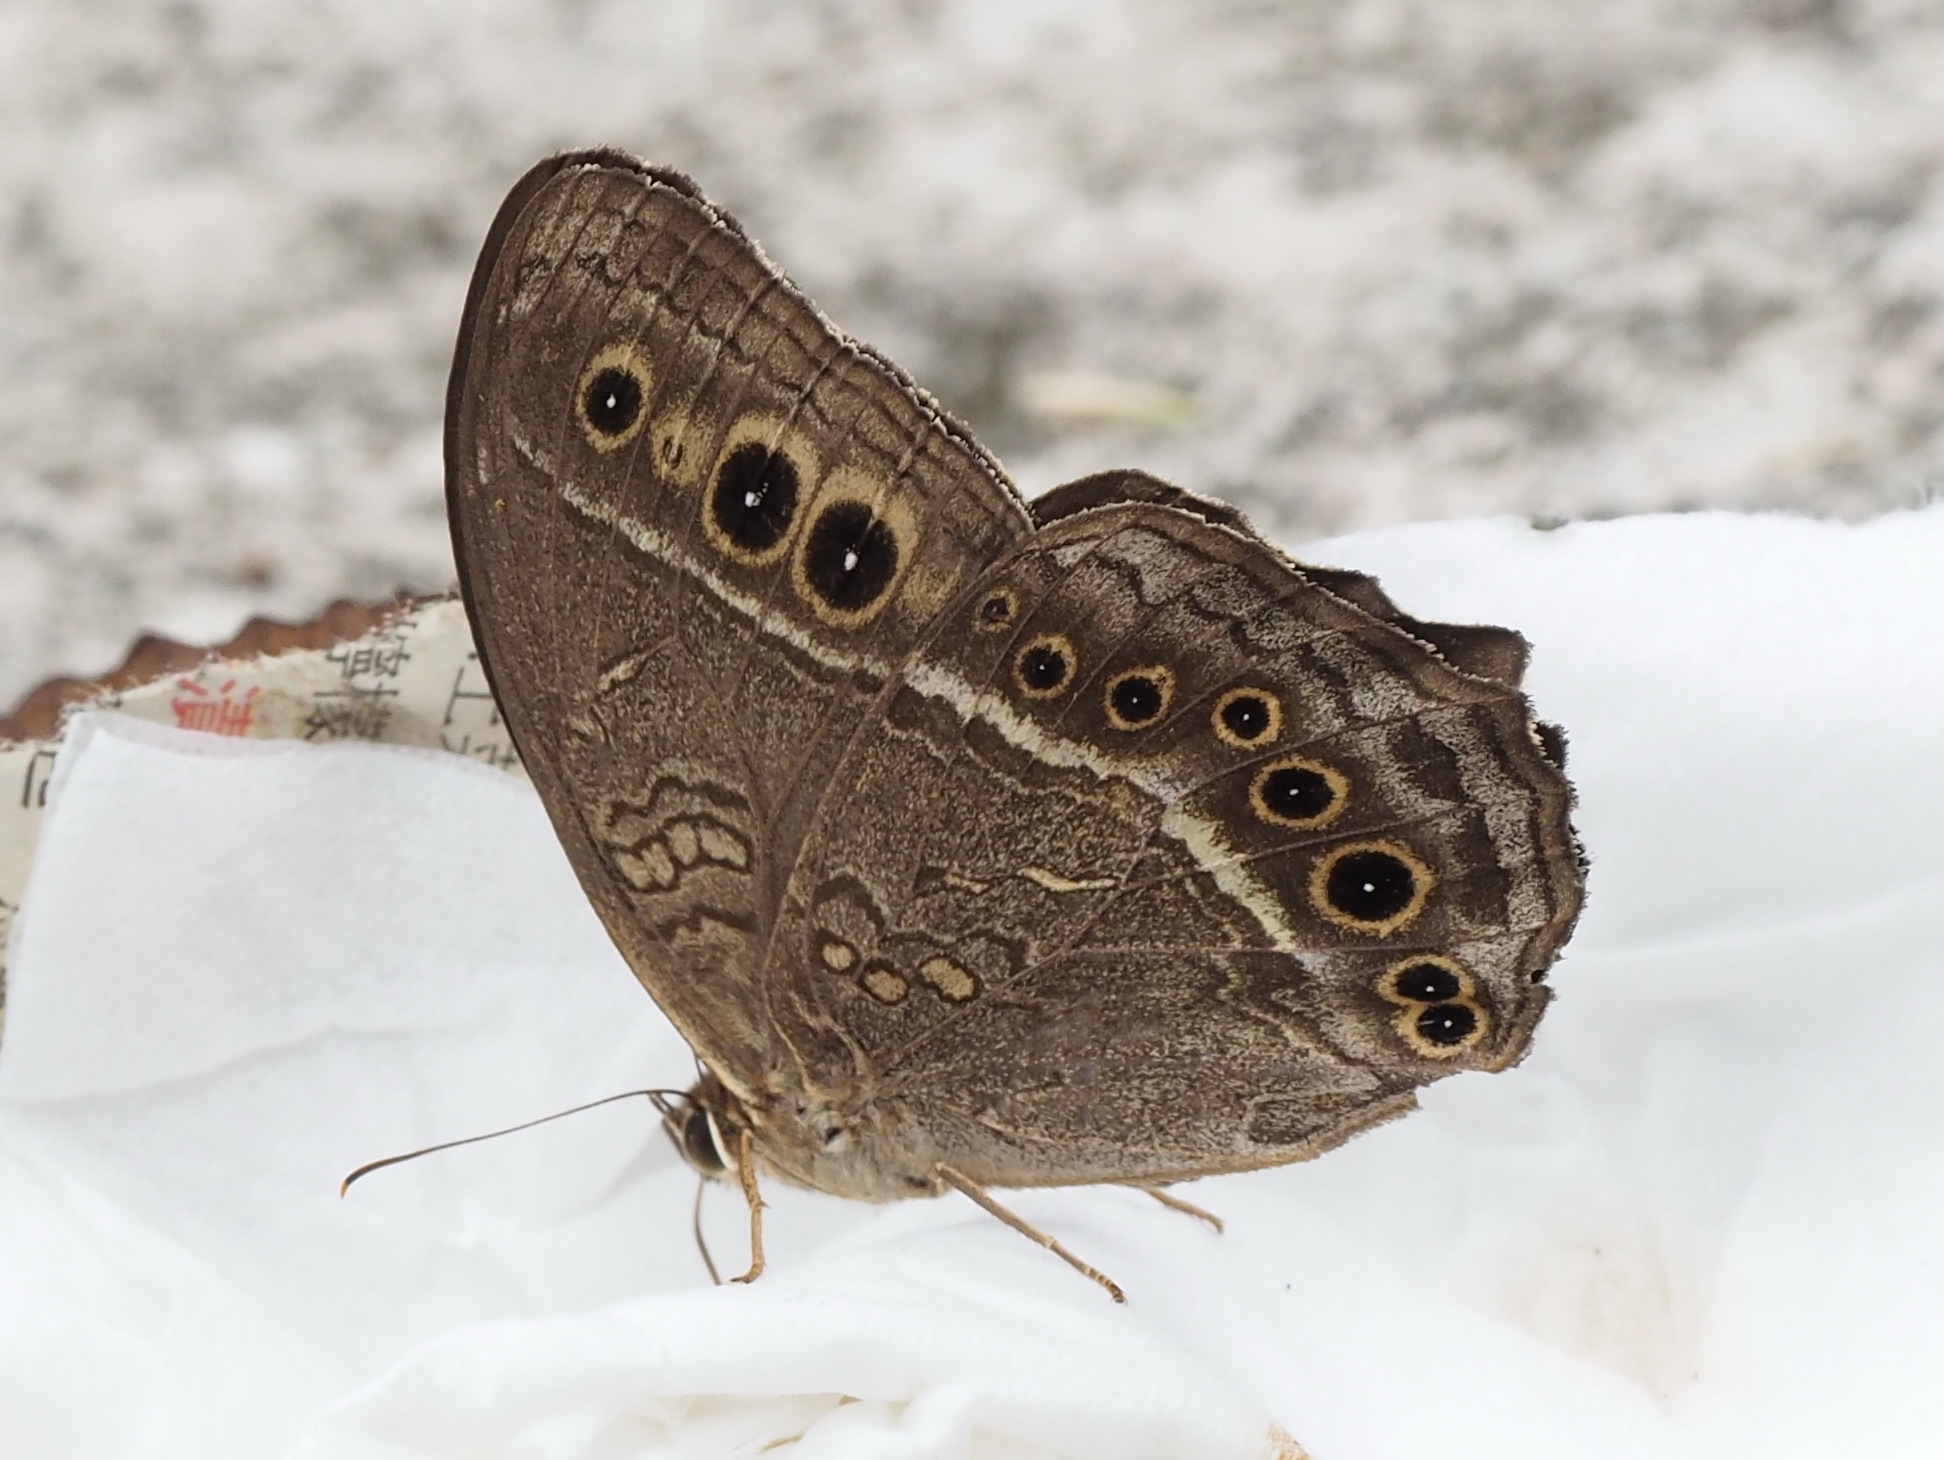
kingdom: Animalia
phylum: Arthropoda
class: Insecta
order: Lepidoptera
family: Nymphalidae
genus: Neope
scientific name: Neope muirheadii
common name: Black-spotted labyrinth
